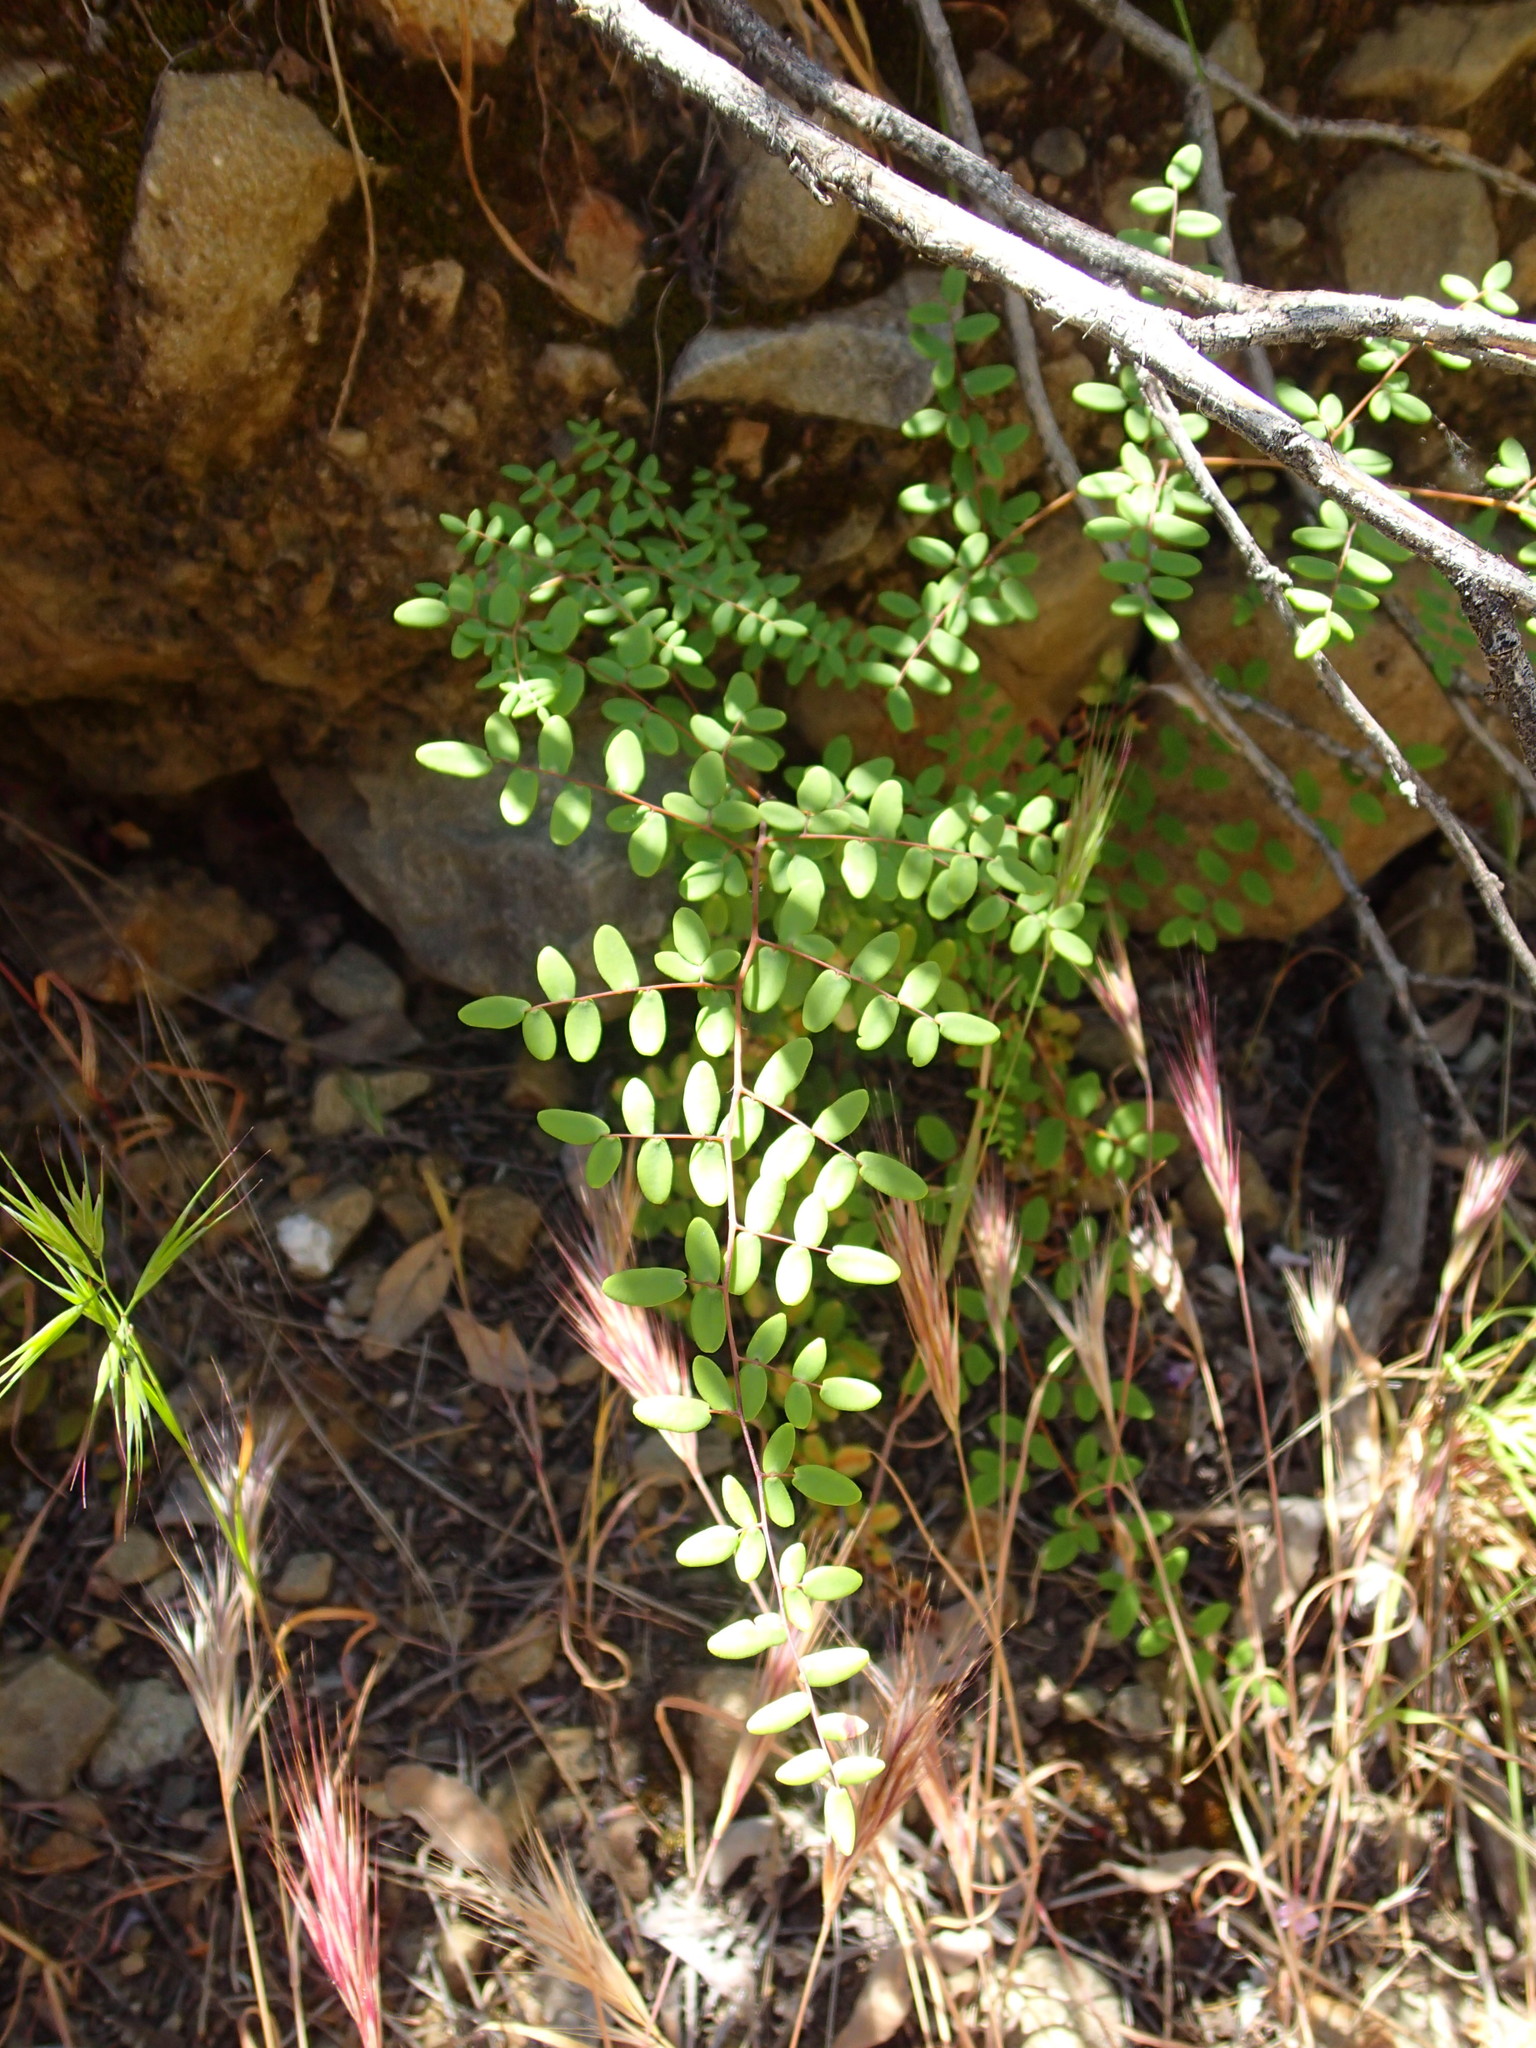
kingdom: Plantae
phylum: Tracheophyta
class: Polypodiopsida
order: Polypodiales
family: Pteridaceae
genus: Pellaea
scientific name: Pellaea andromedifolia
